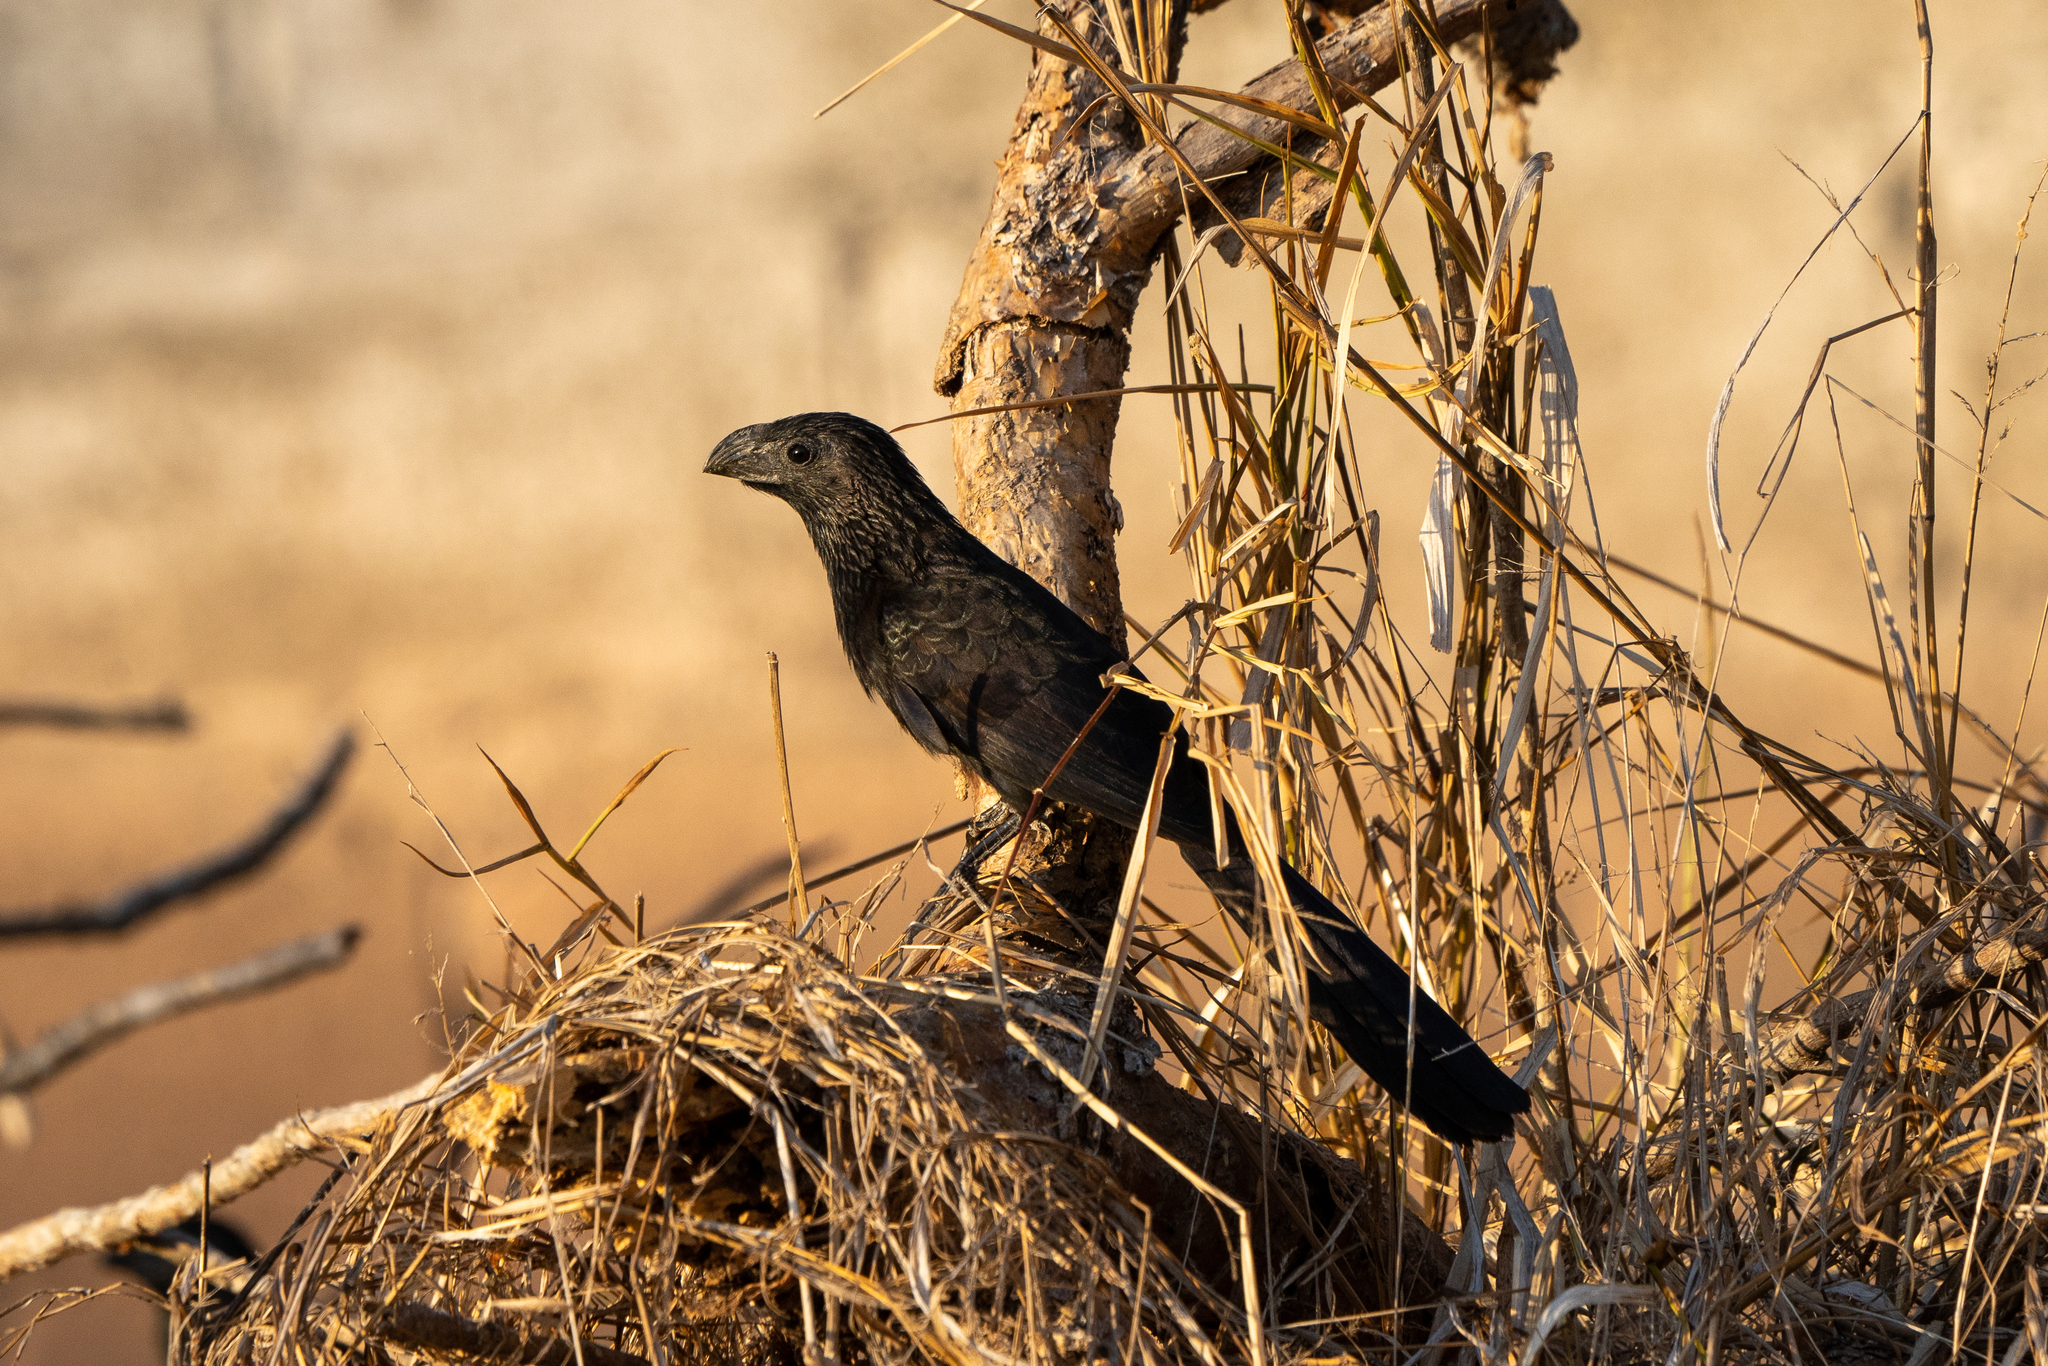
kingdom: Animalia
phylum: Chordata
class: Aves
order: Cuculiformes
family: Cuculidae
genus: Crotophaga
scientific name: Crotophaga sulcirostris
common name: Groove-billed ani
